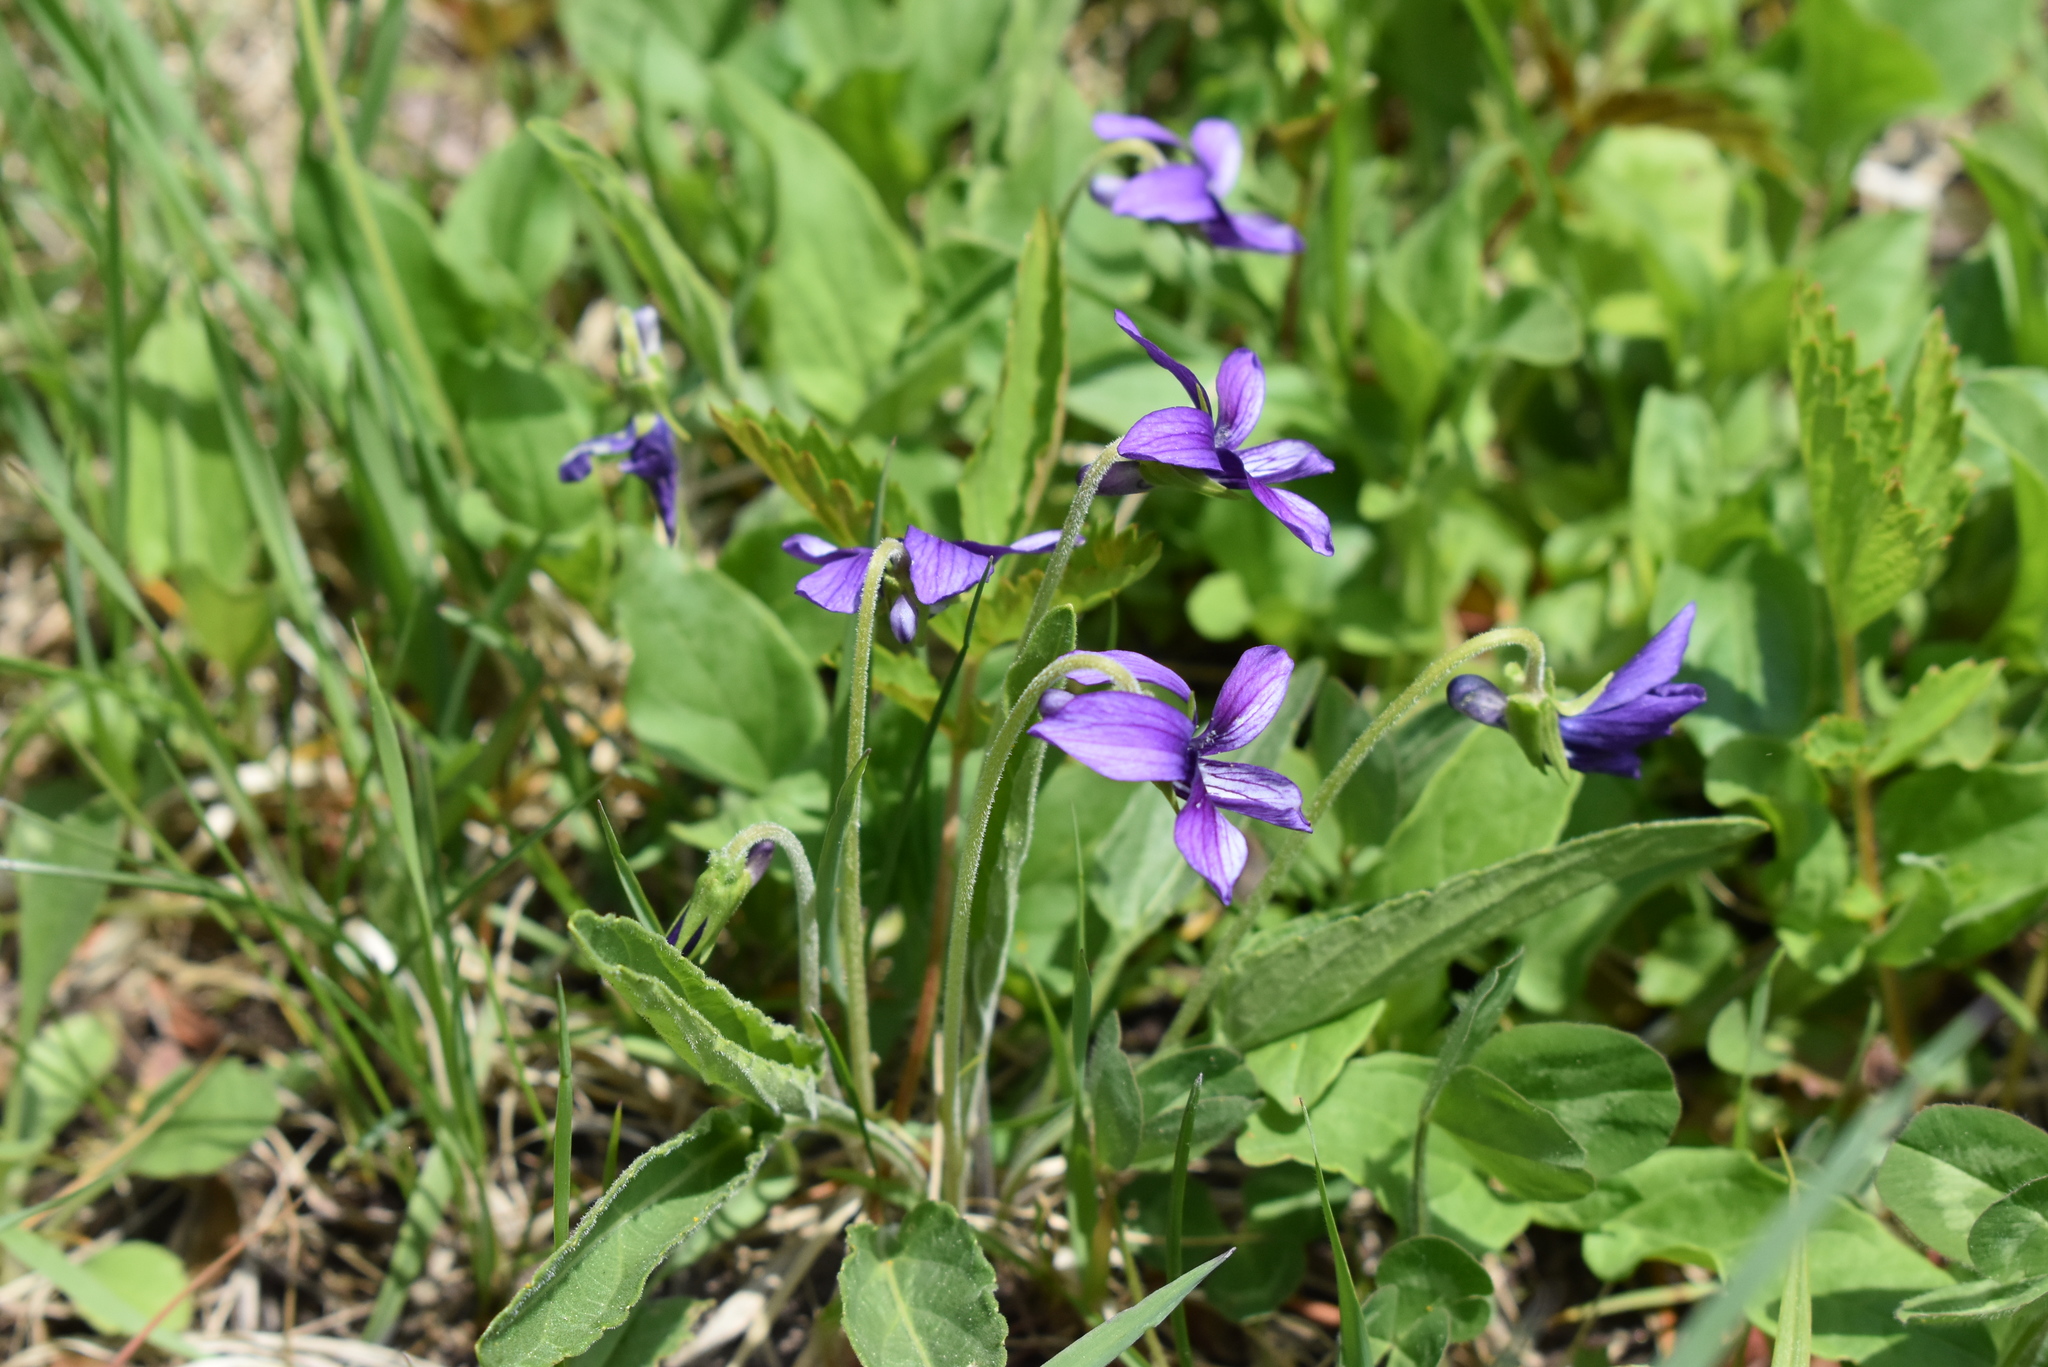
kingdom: Plantae
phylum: Tracheophyta
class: Magnoliopsida
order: Malpighiales
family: Violaceae
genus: Viola
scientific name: Viola mandshurica
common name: Manchuria violet
